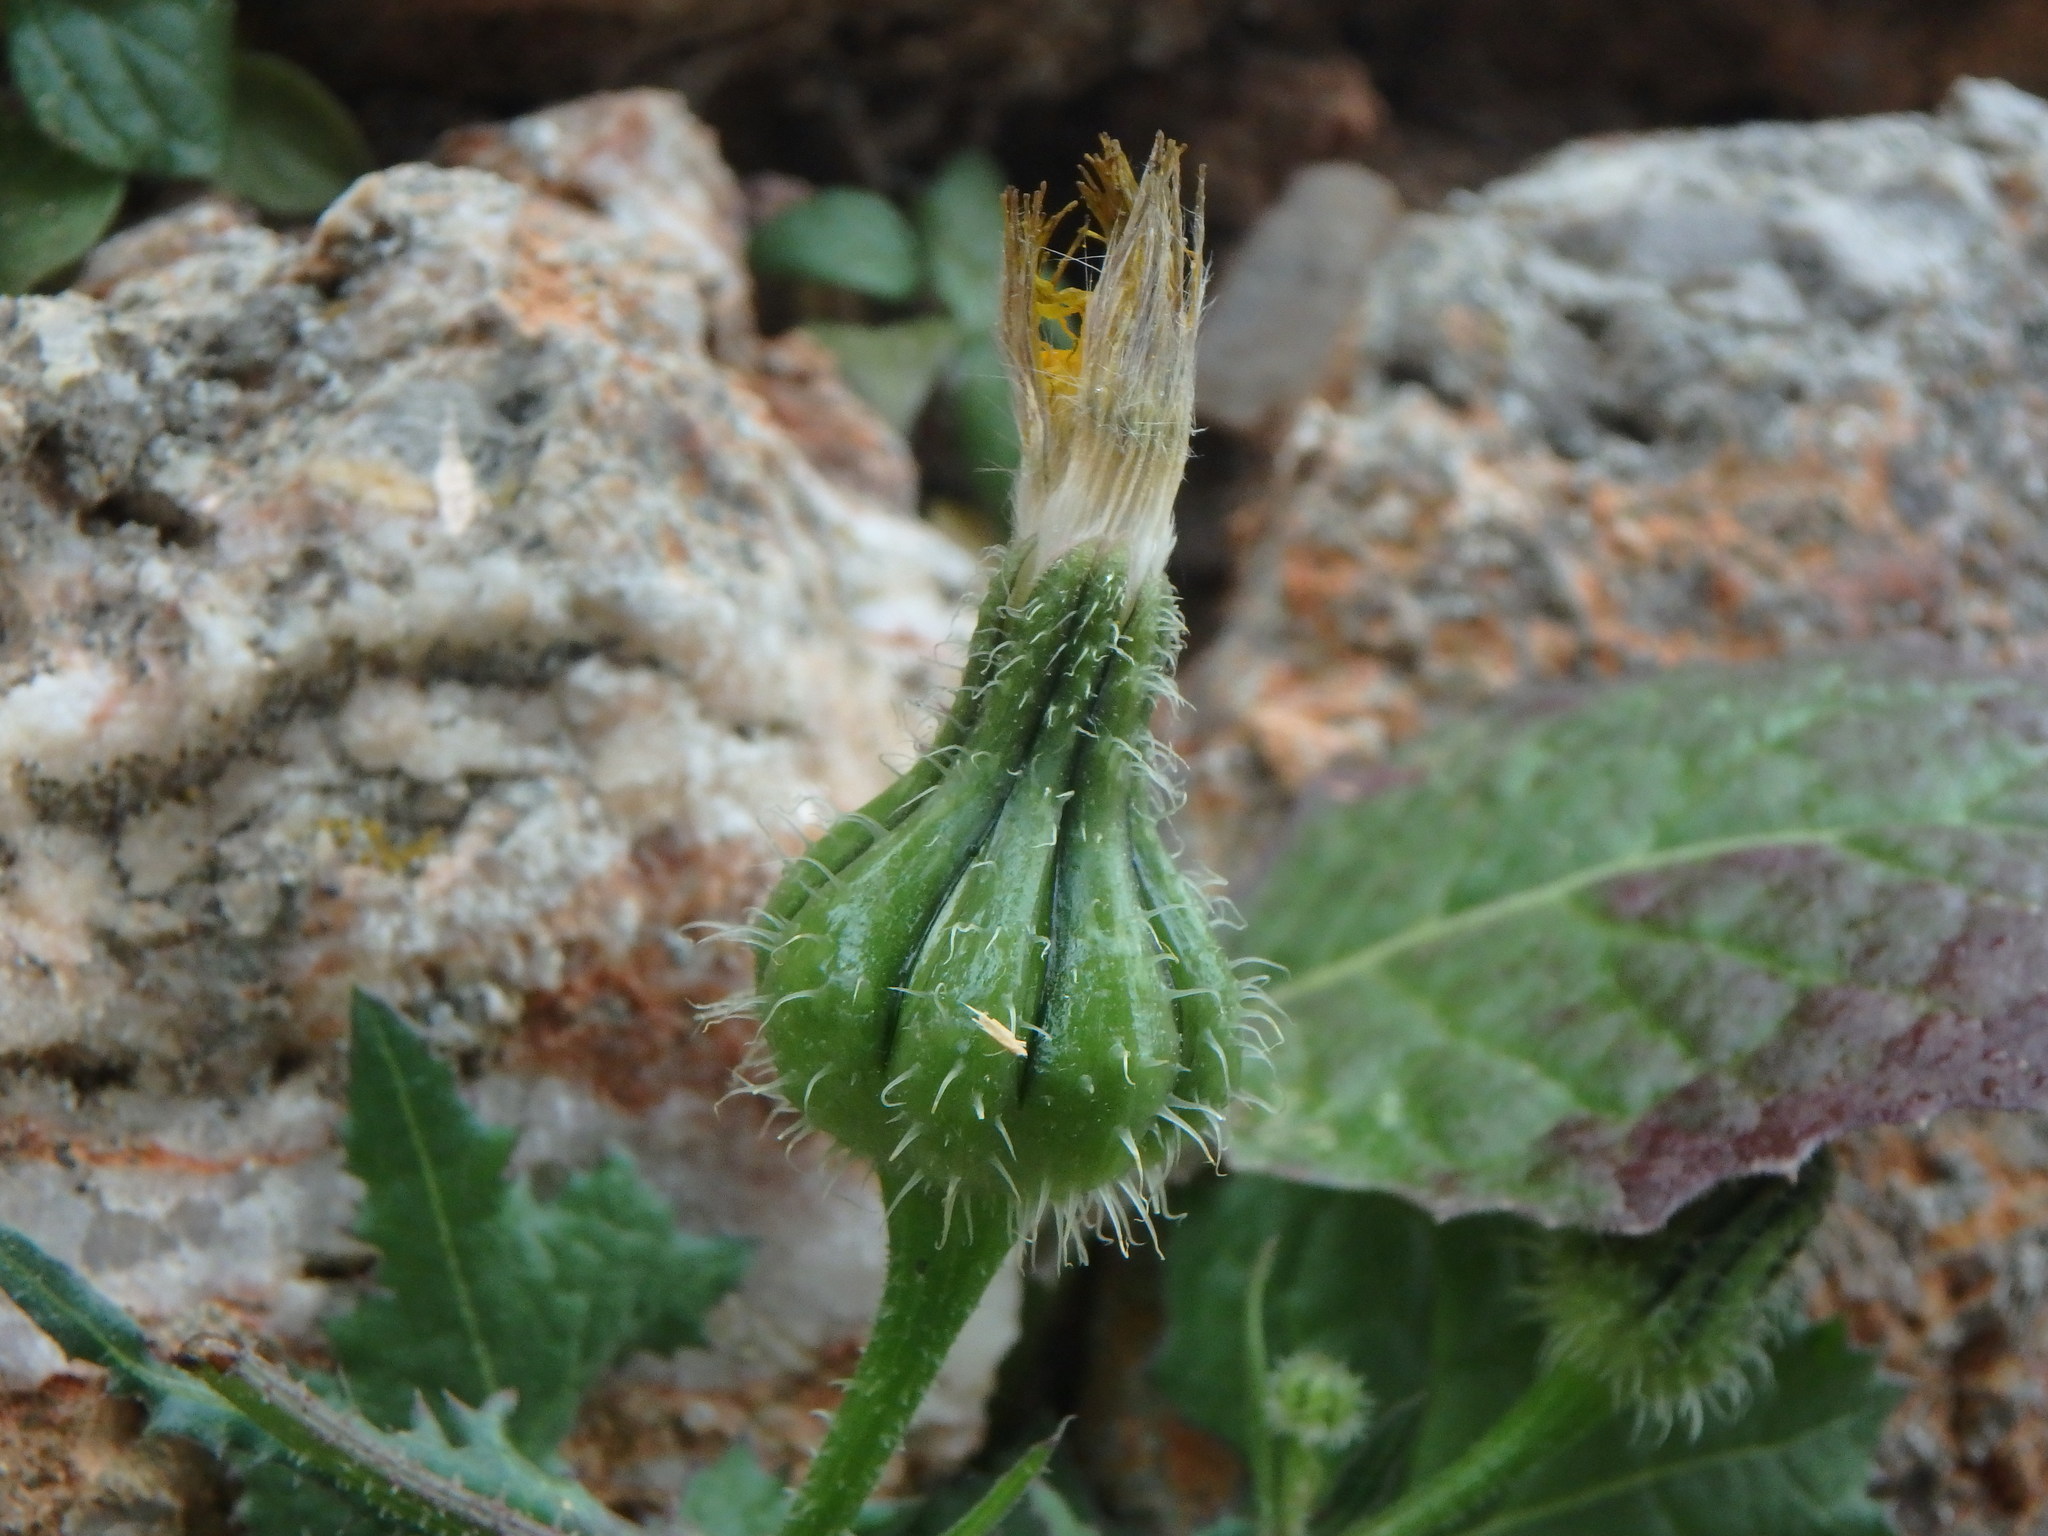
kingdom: Plantae
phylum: Tracheophyta
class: Magnoliopsida
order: Asterales
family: Asteraceae
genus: Urospermum
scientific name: Urospermum picroides
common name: False hawkbit
